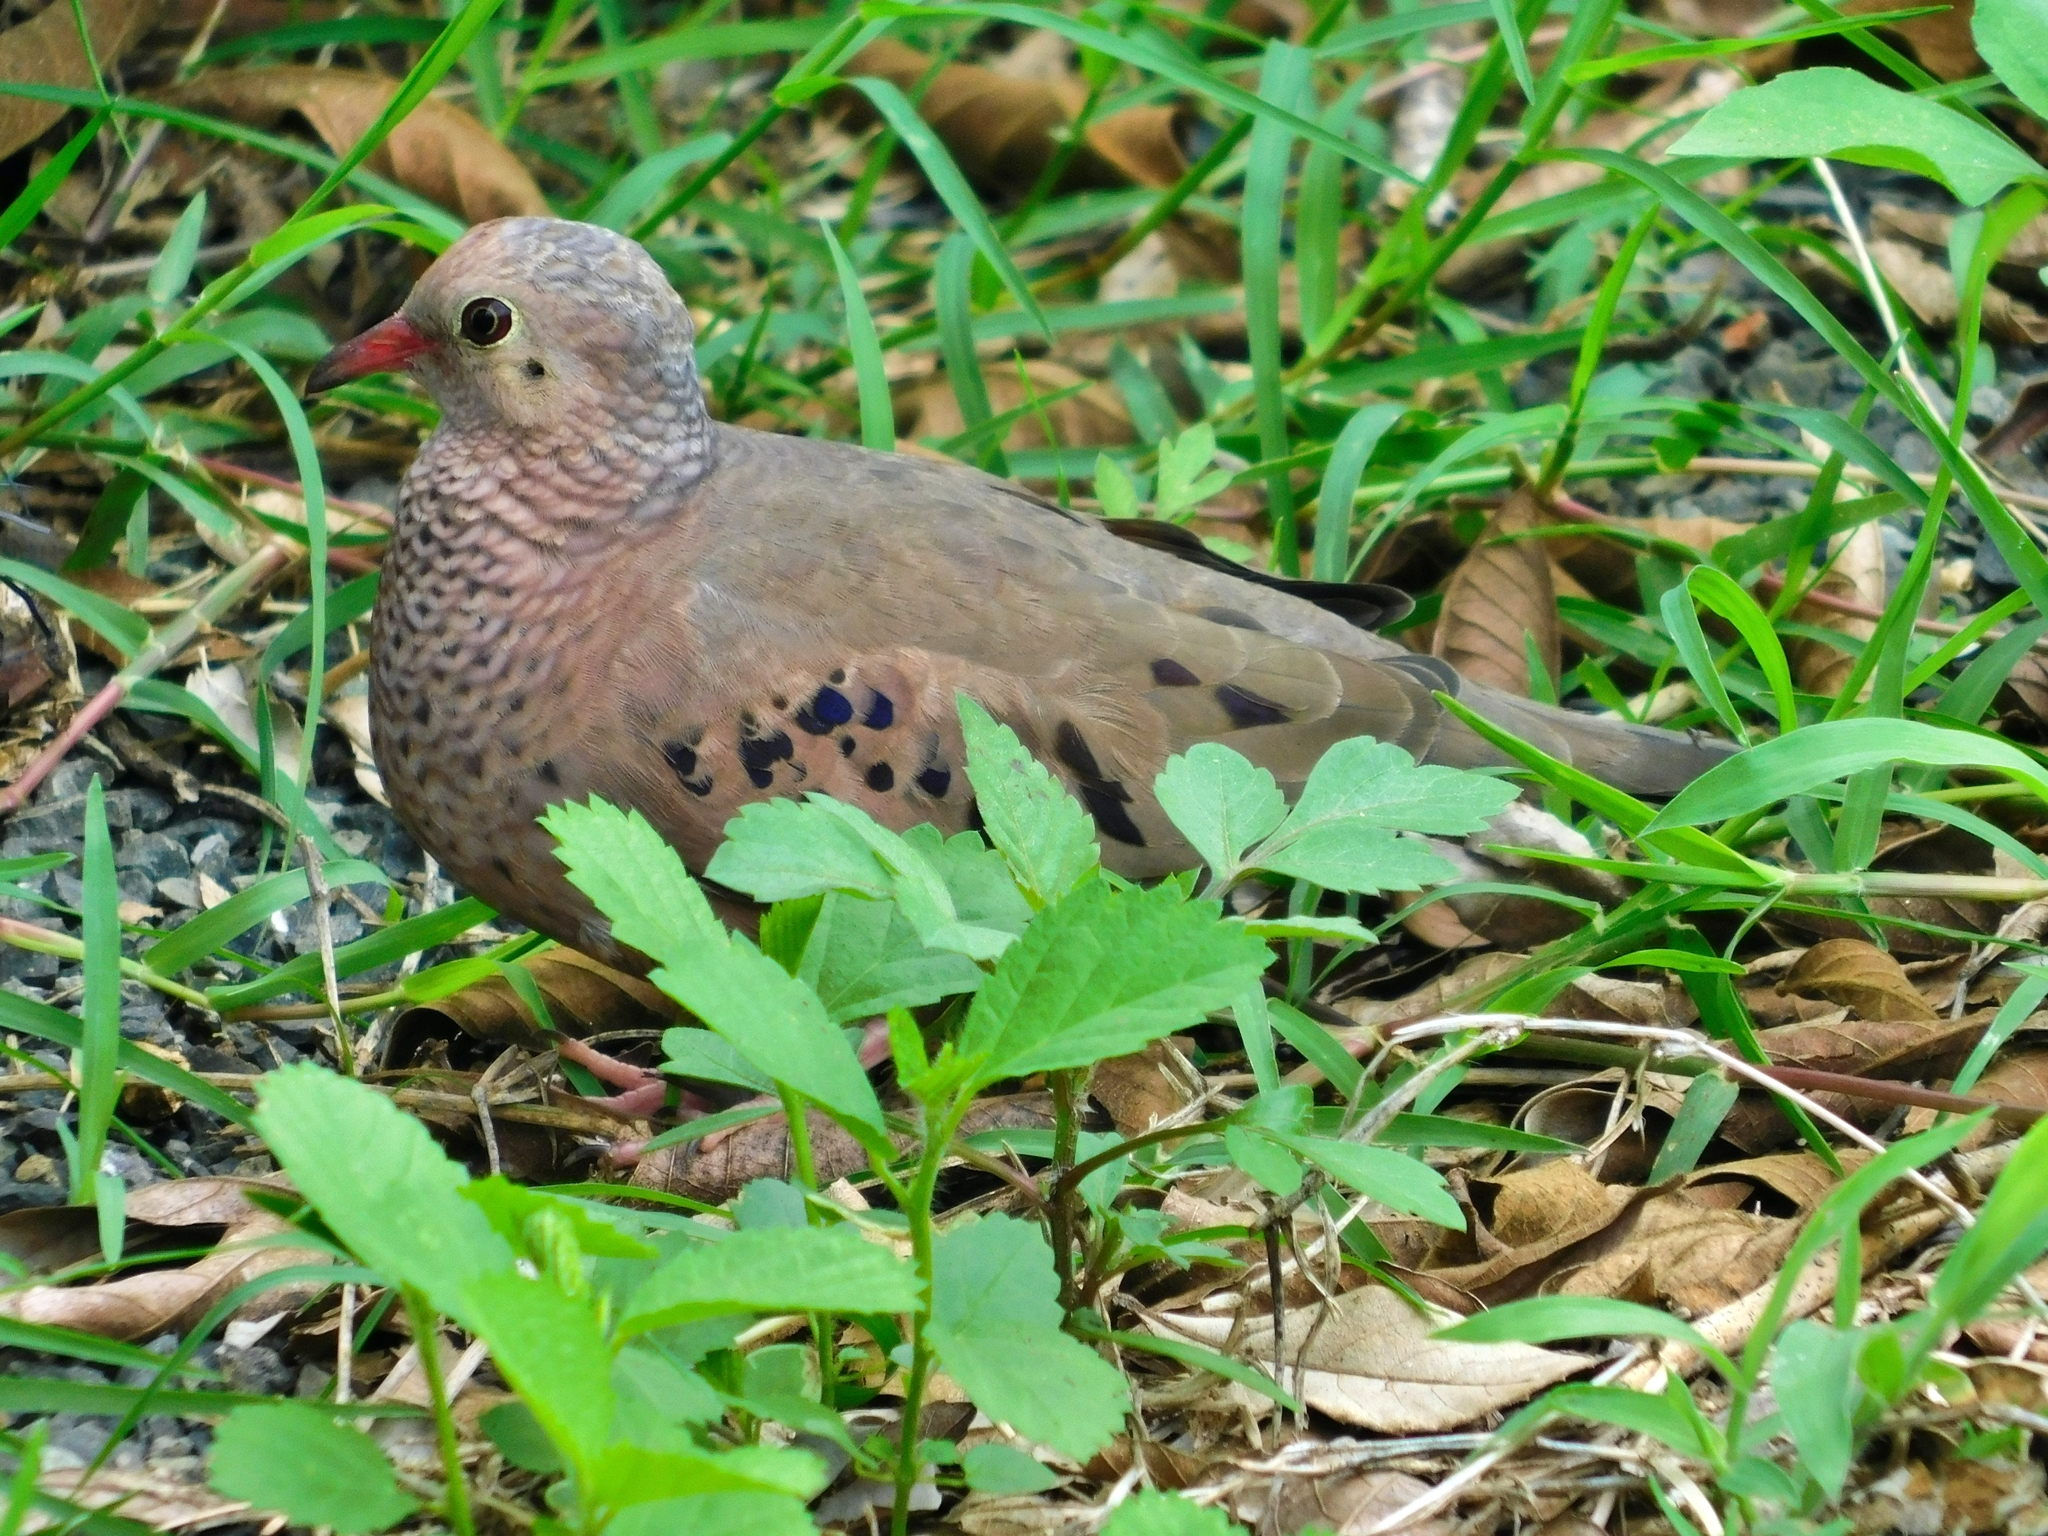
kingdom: Animalia
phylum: Chordata
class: Aves
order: Columbiformes
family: Columbidae
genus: Columbina
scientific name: Columbina passerina
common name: Common ground-dove
